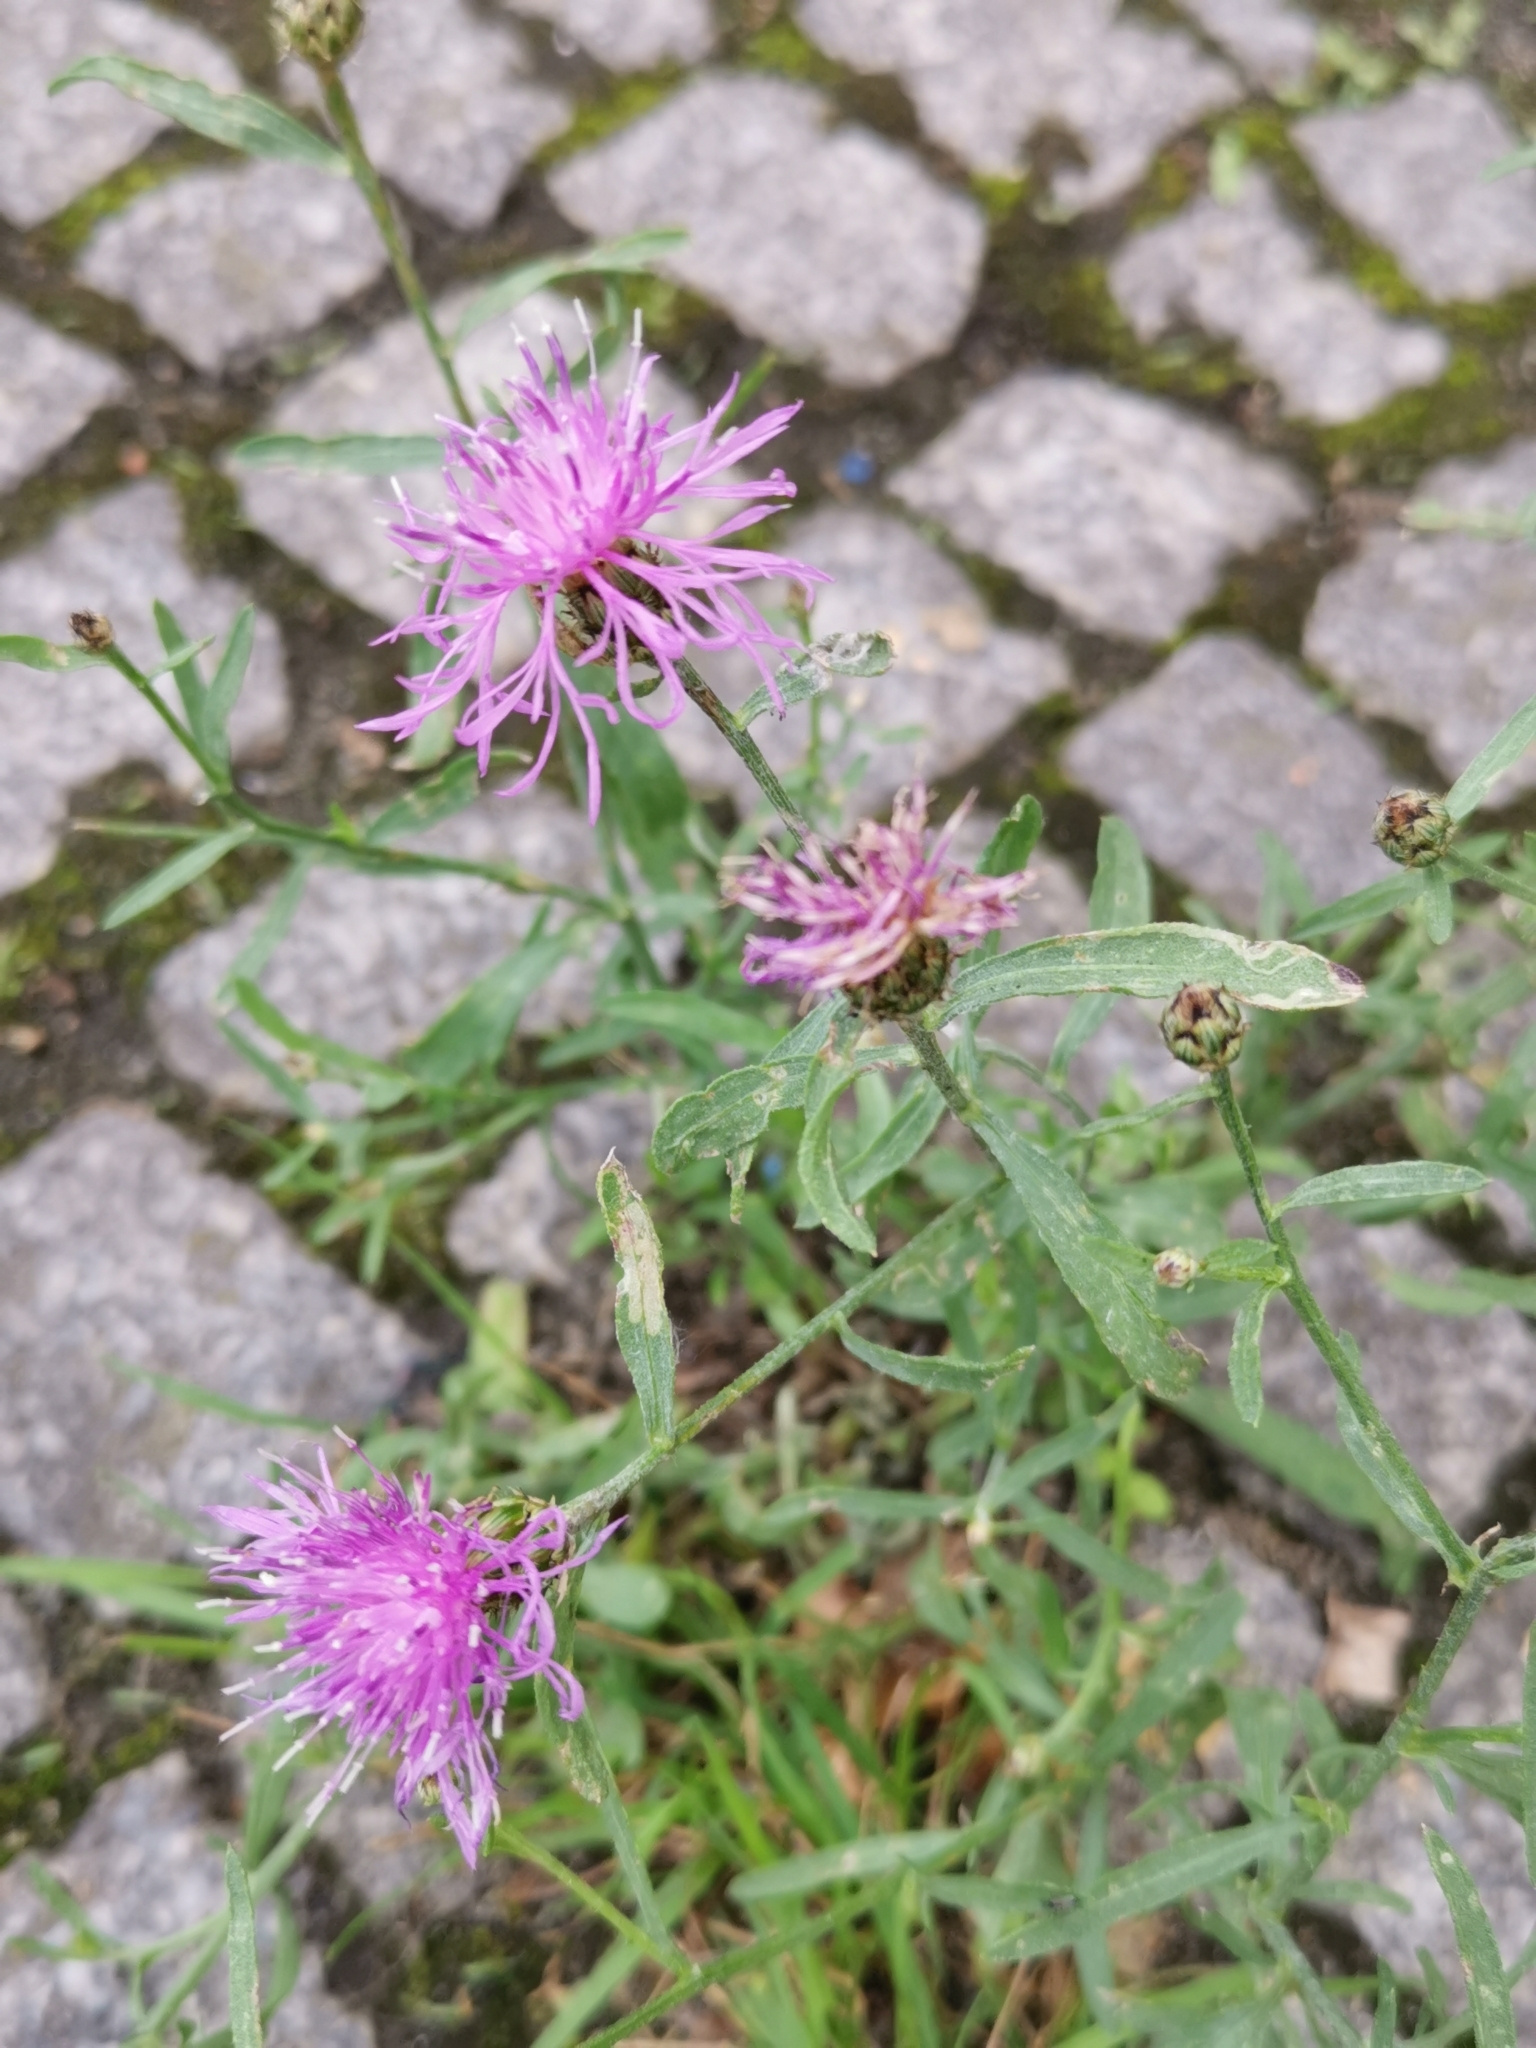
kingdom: Plantae
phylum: Tracheophyta
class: Magnoliopsida
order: Asterales
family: Asteraceae
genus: Centaurea
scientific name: Centaurea stoebe
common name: Spotted knapweed
